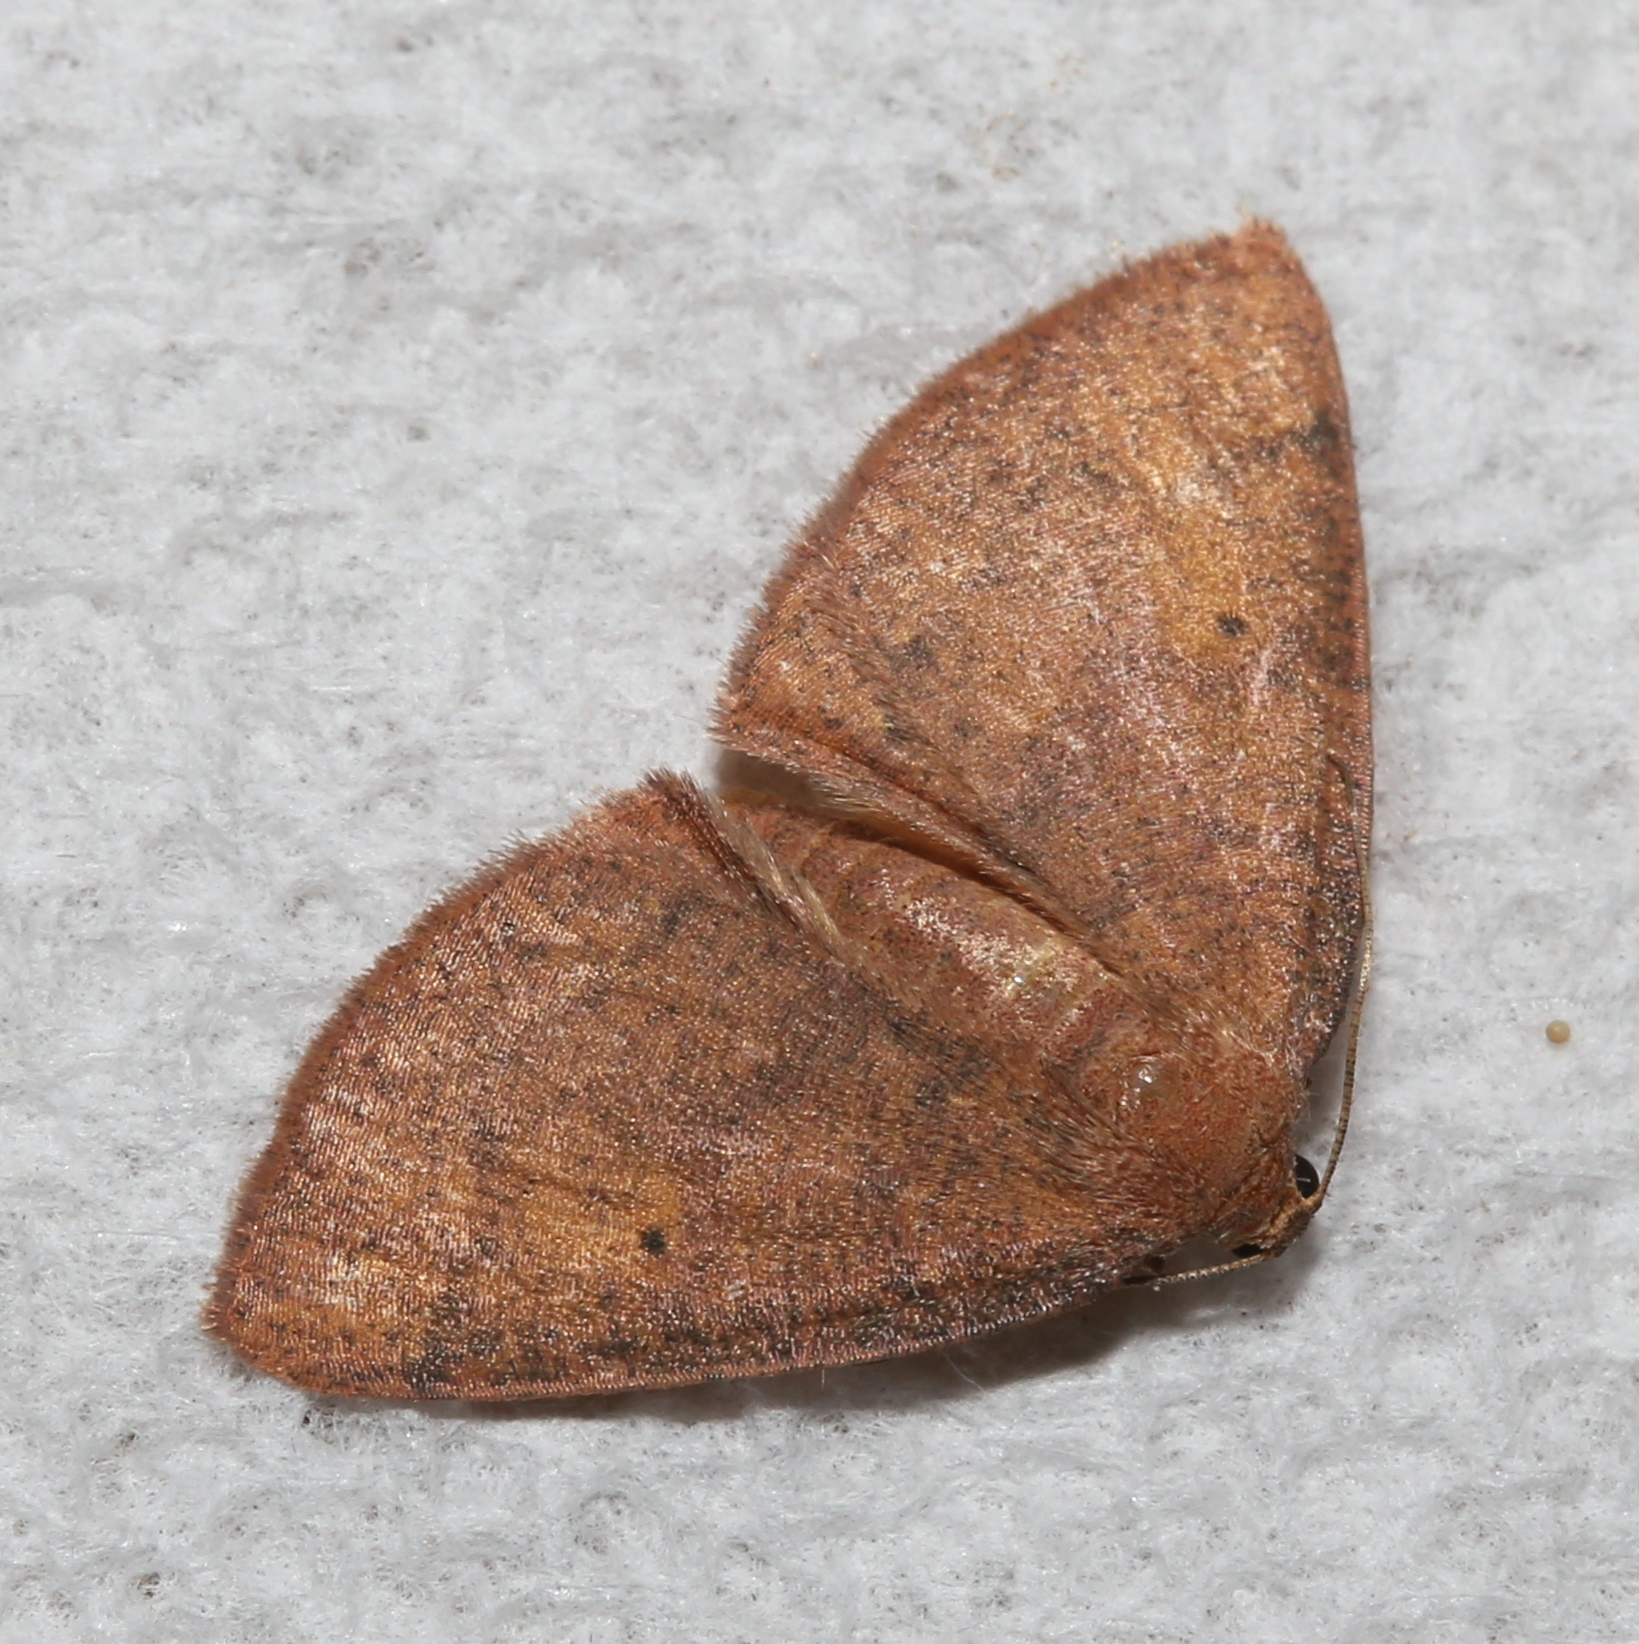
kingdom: Animalia
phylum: Arthropoda
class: Insecta
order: Lepidoptera
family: Geometridae
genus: Ilexia
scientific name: Ilexia intractata
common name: Black-dotted ruddy moth
